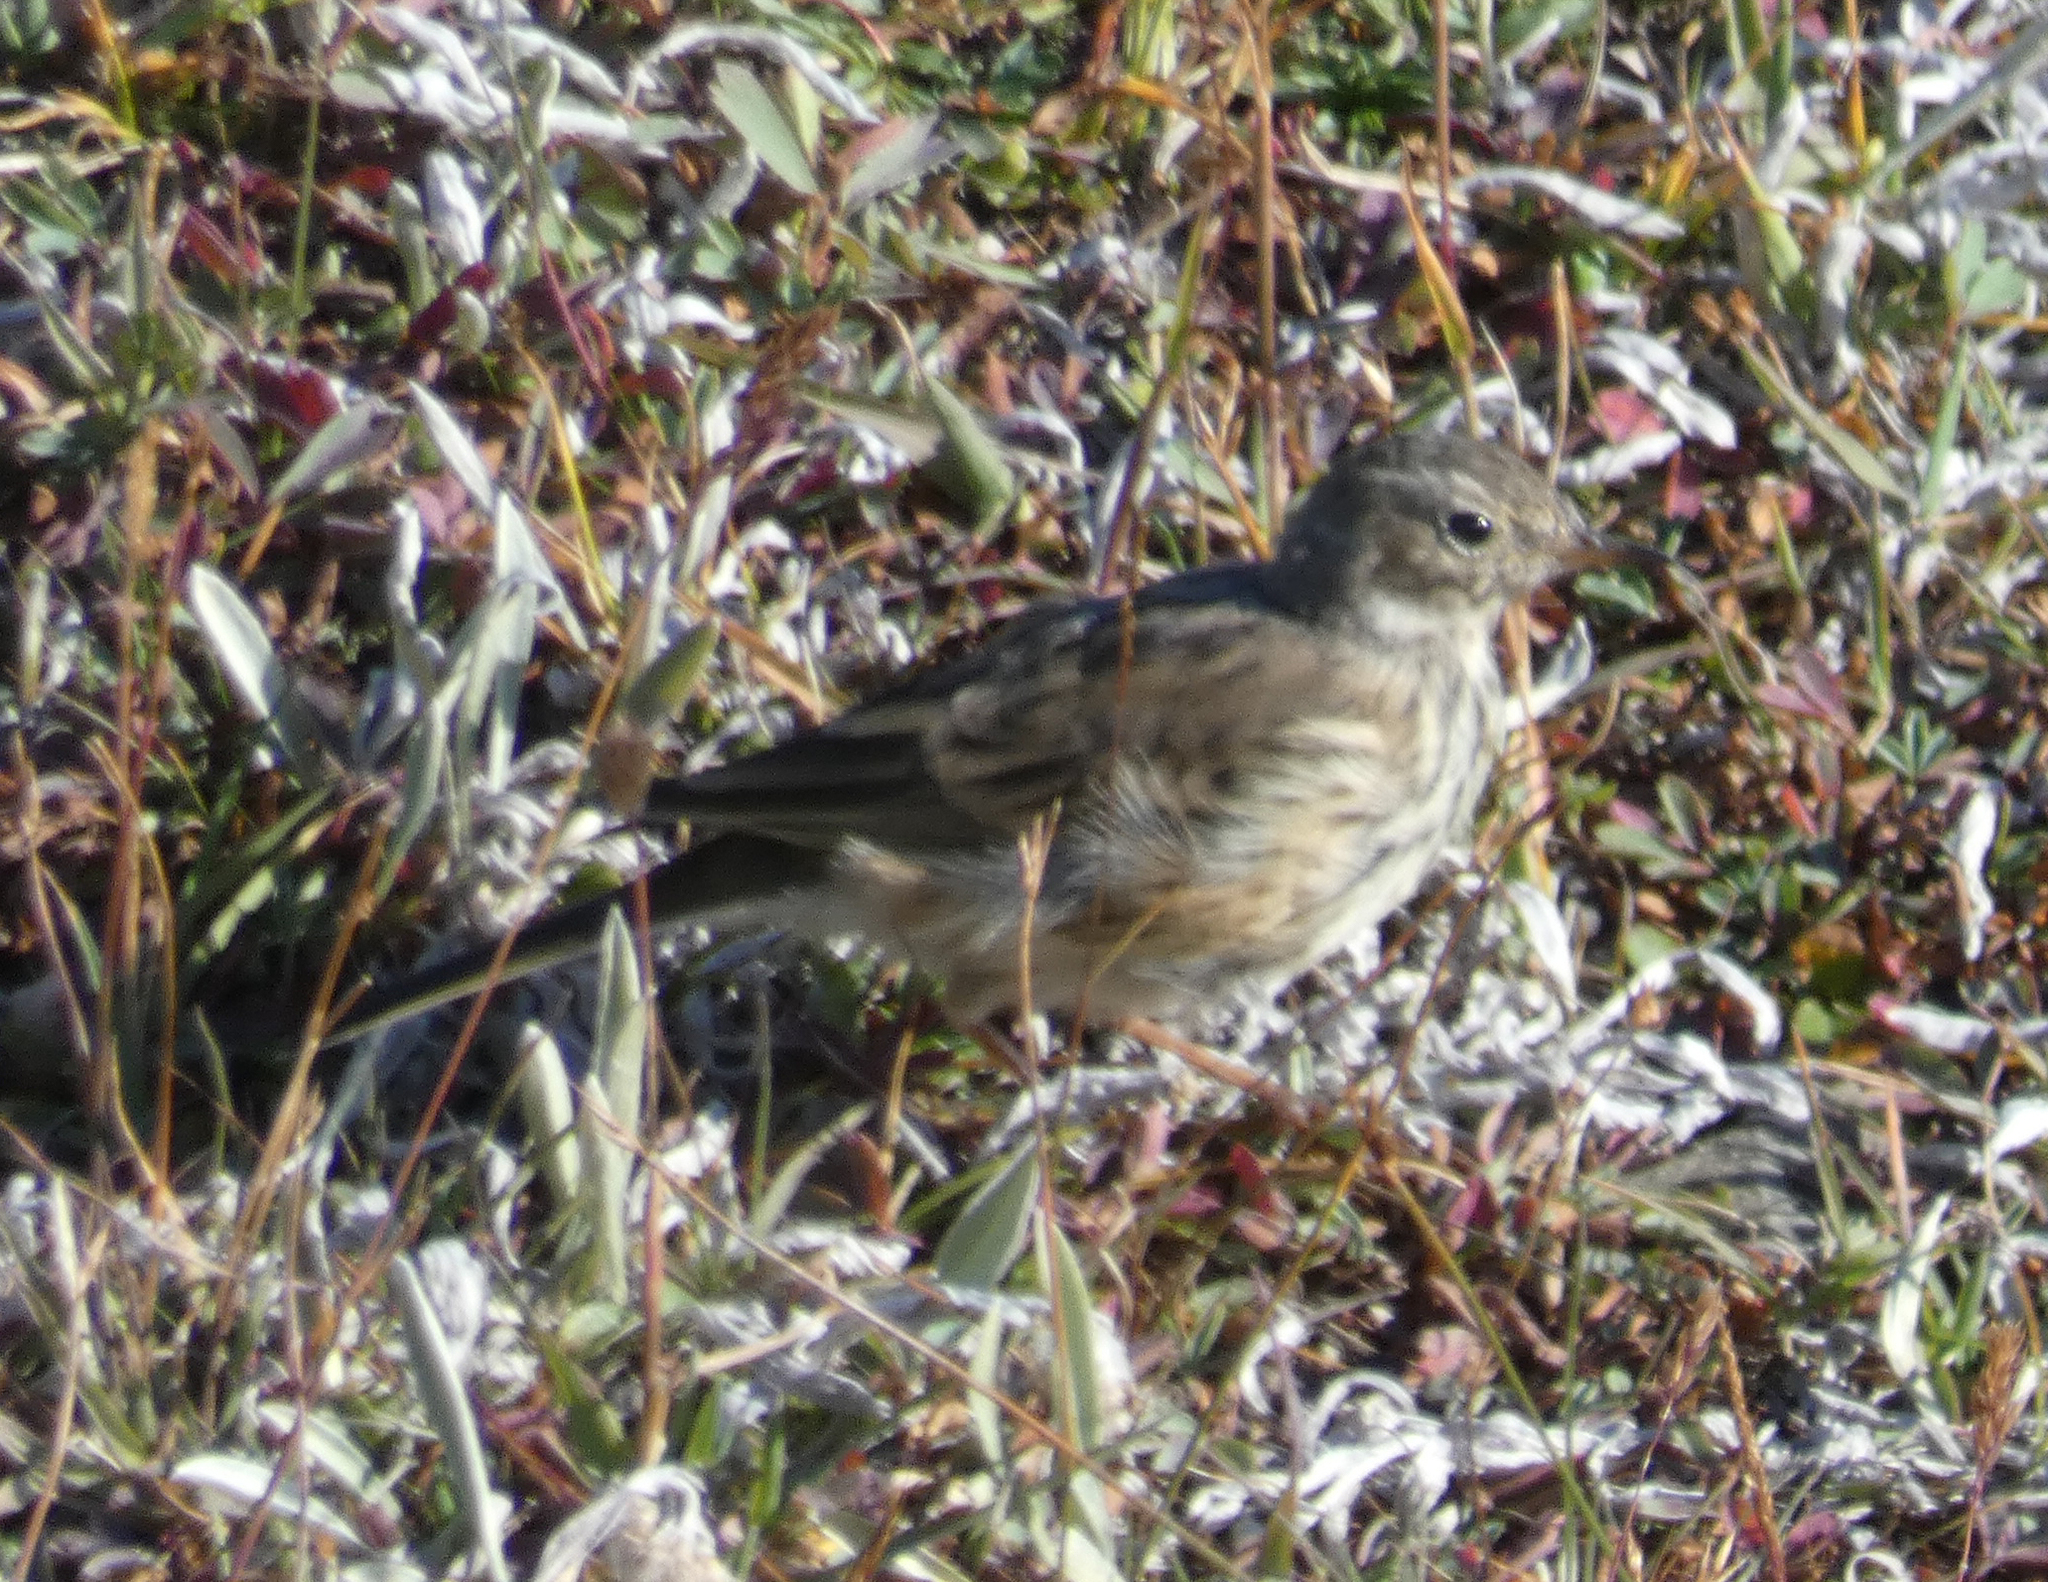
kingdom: Animalia
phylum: Chordata
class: Aves
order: Passeriformes
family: Motacillidae
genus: Anthus
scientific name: Anthus rubescens
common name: Buff-bellied pipit
